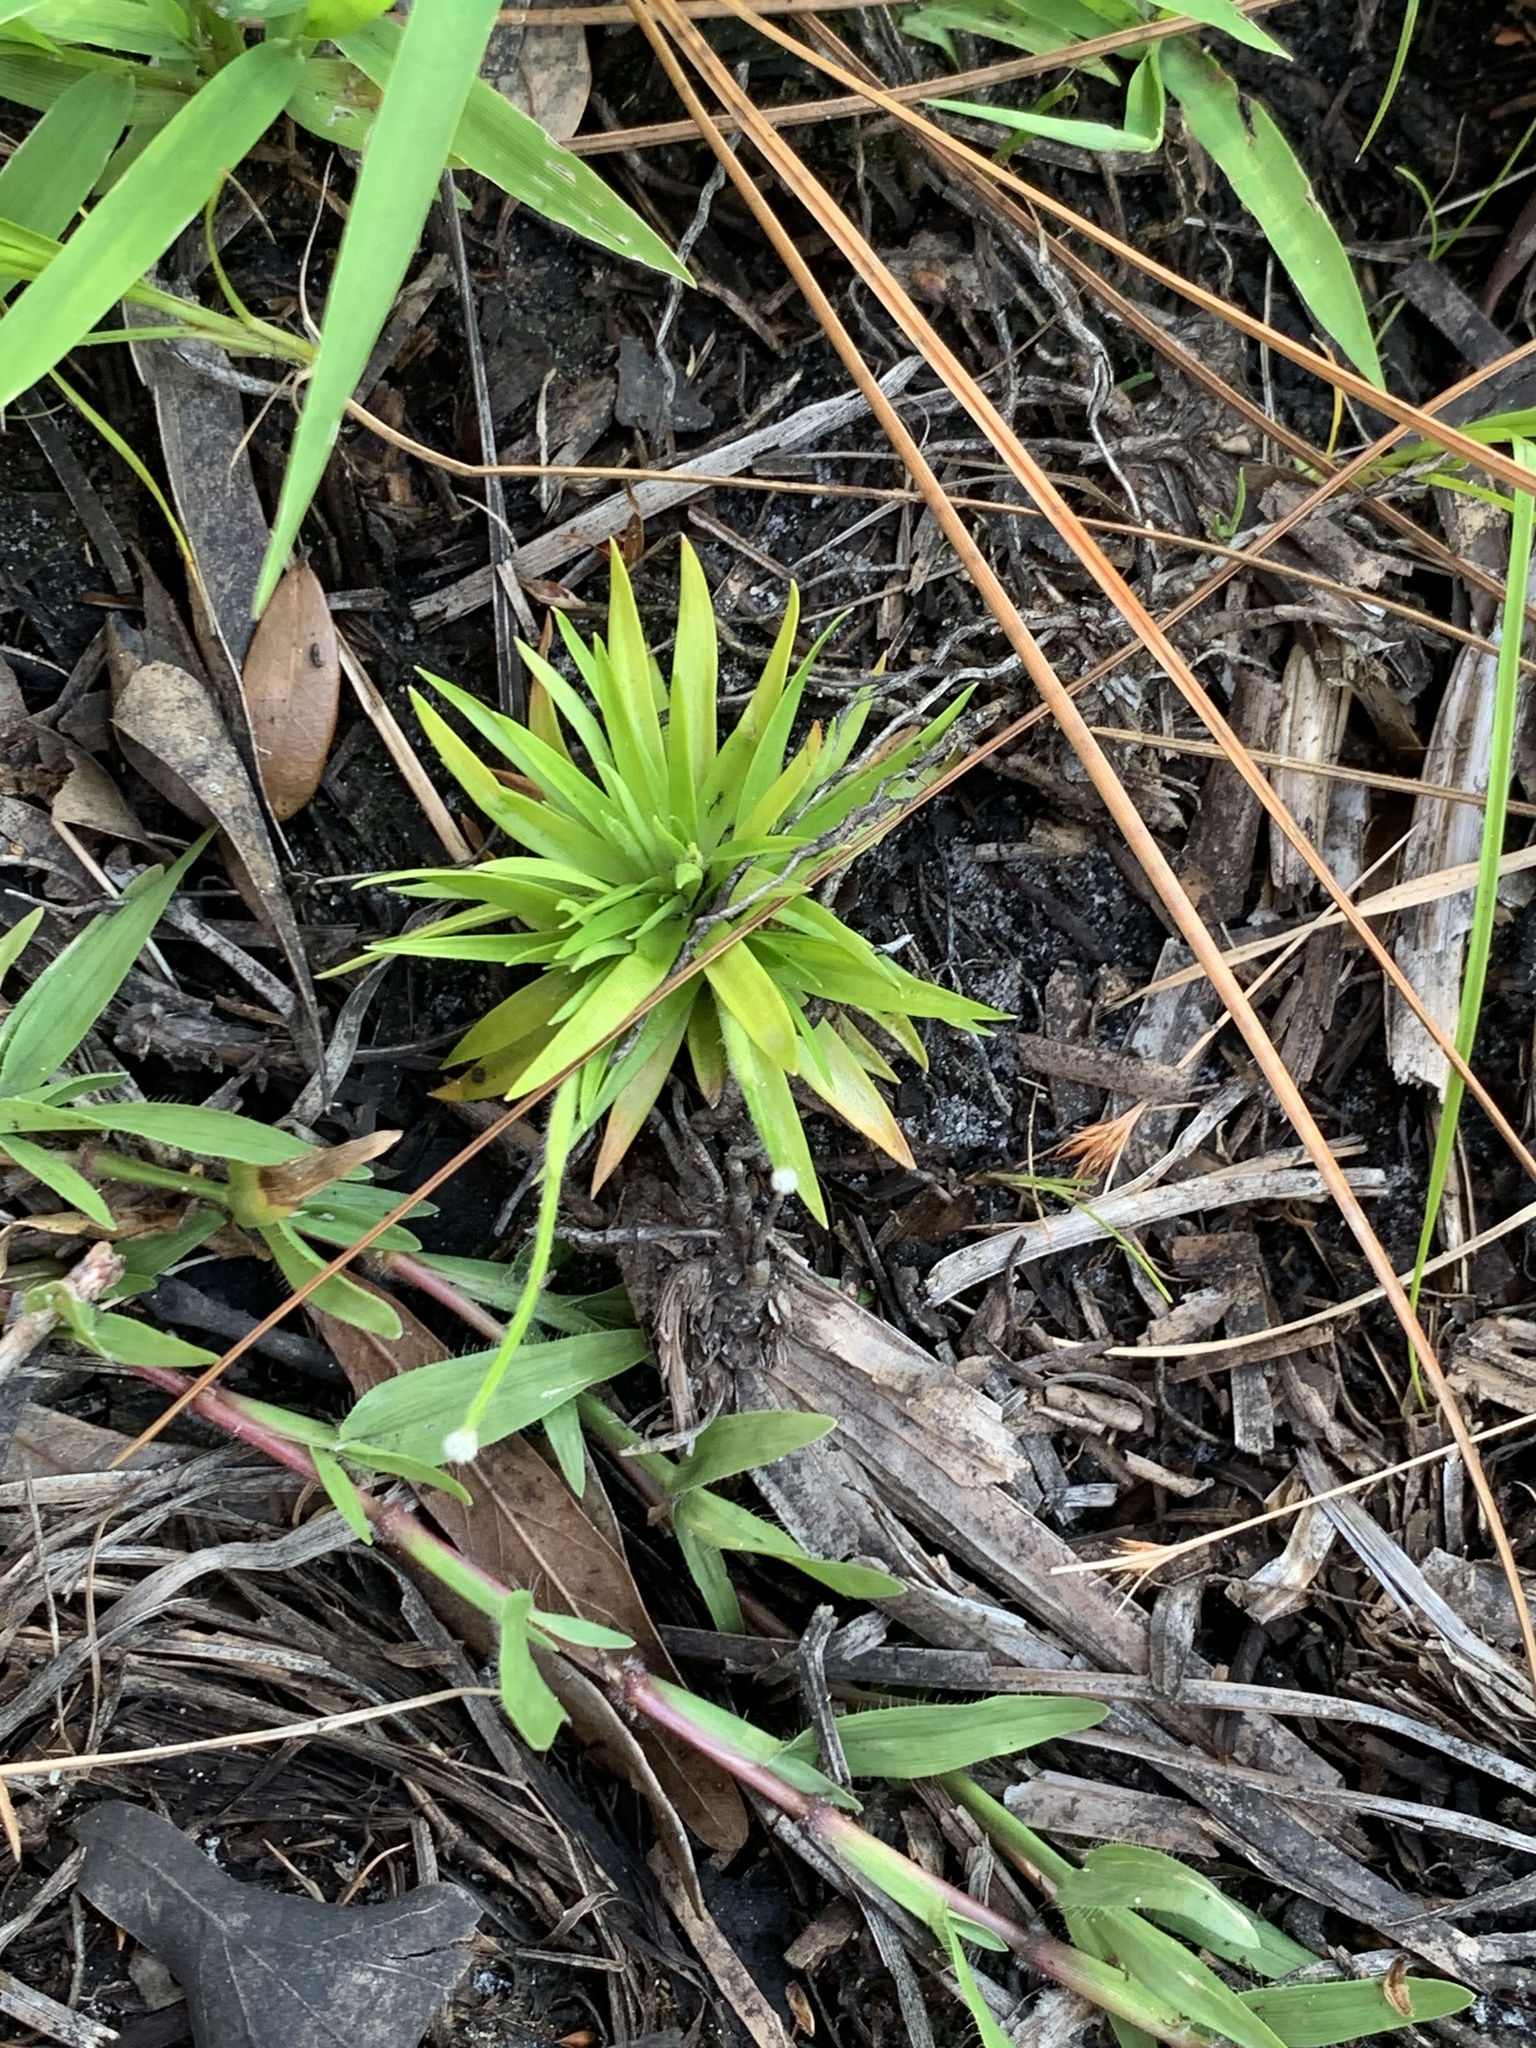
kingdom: Plantae
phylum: Tracheophyta
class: Liliopsida
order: Poales
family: Eriocaulaceae
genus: Paepalanthus
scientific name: Paepalanthus anceps
